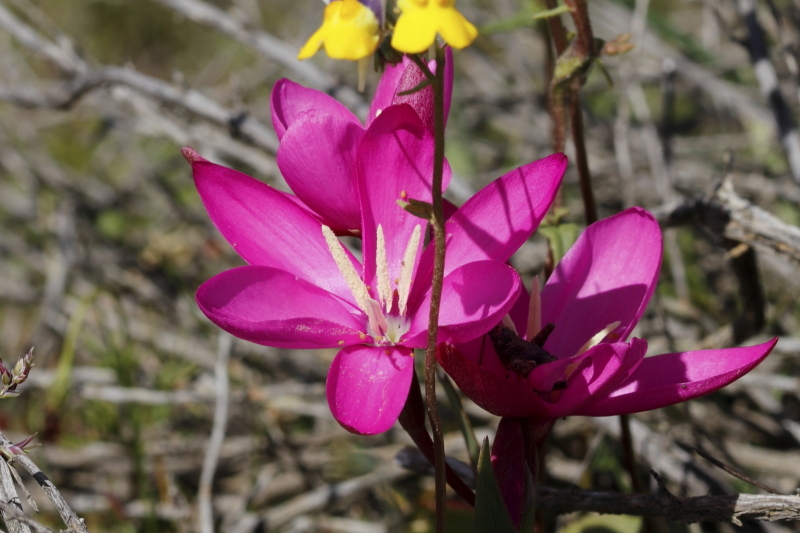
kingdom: Plantae
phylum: Tracheophyta
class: Liliopsida
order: Asparagales
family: Iridaceae
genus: Hesperantha
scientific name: Hesperantha pauciflora
